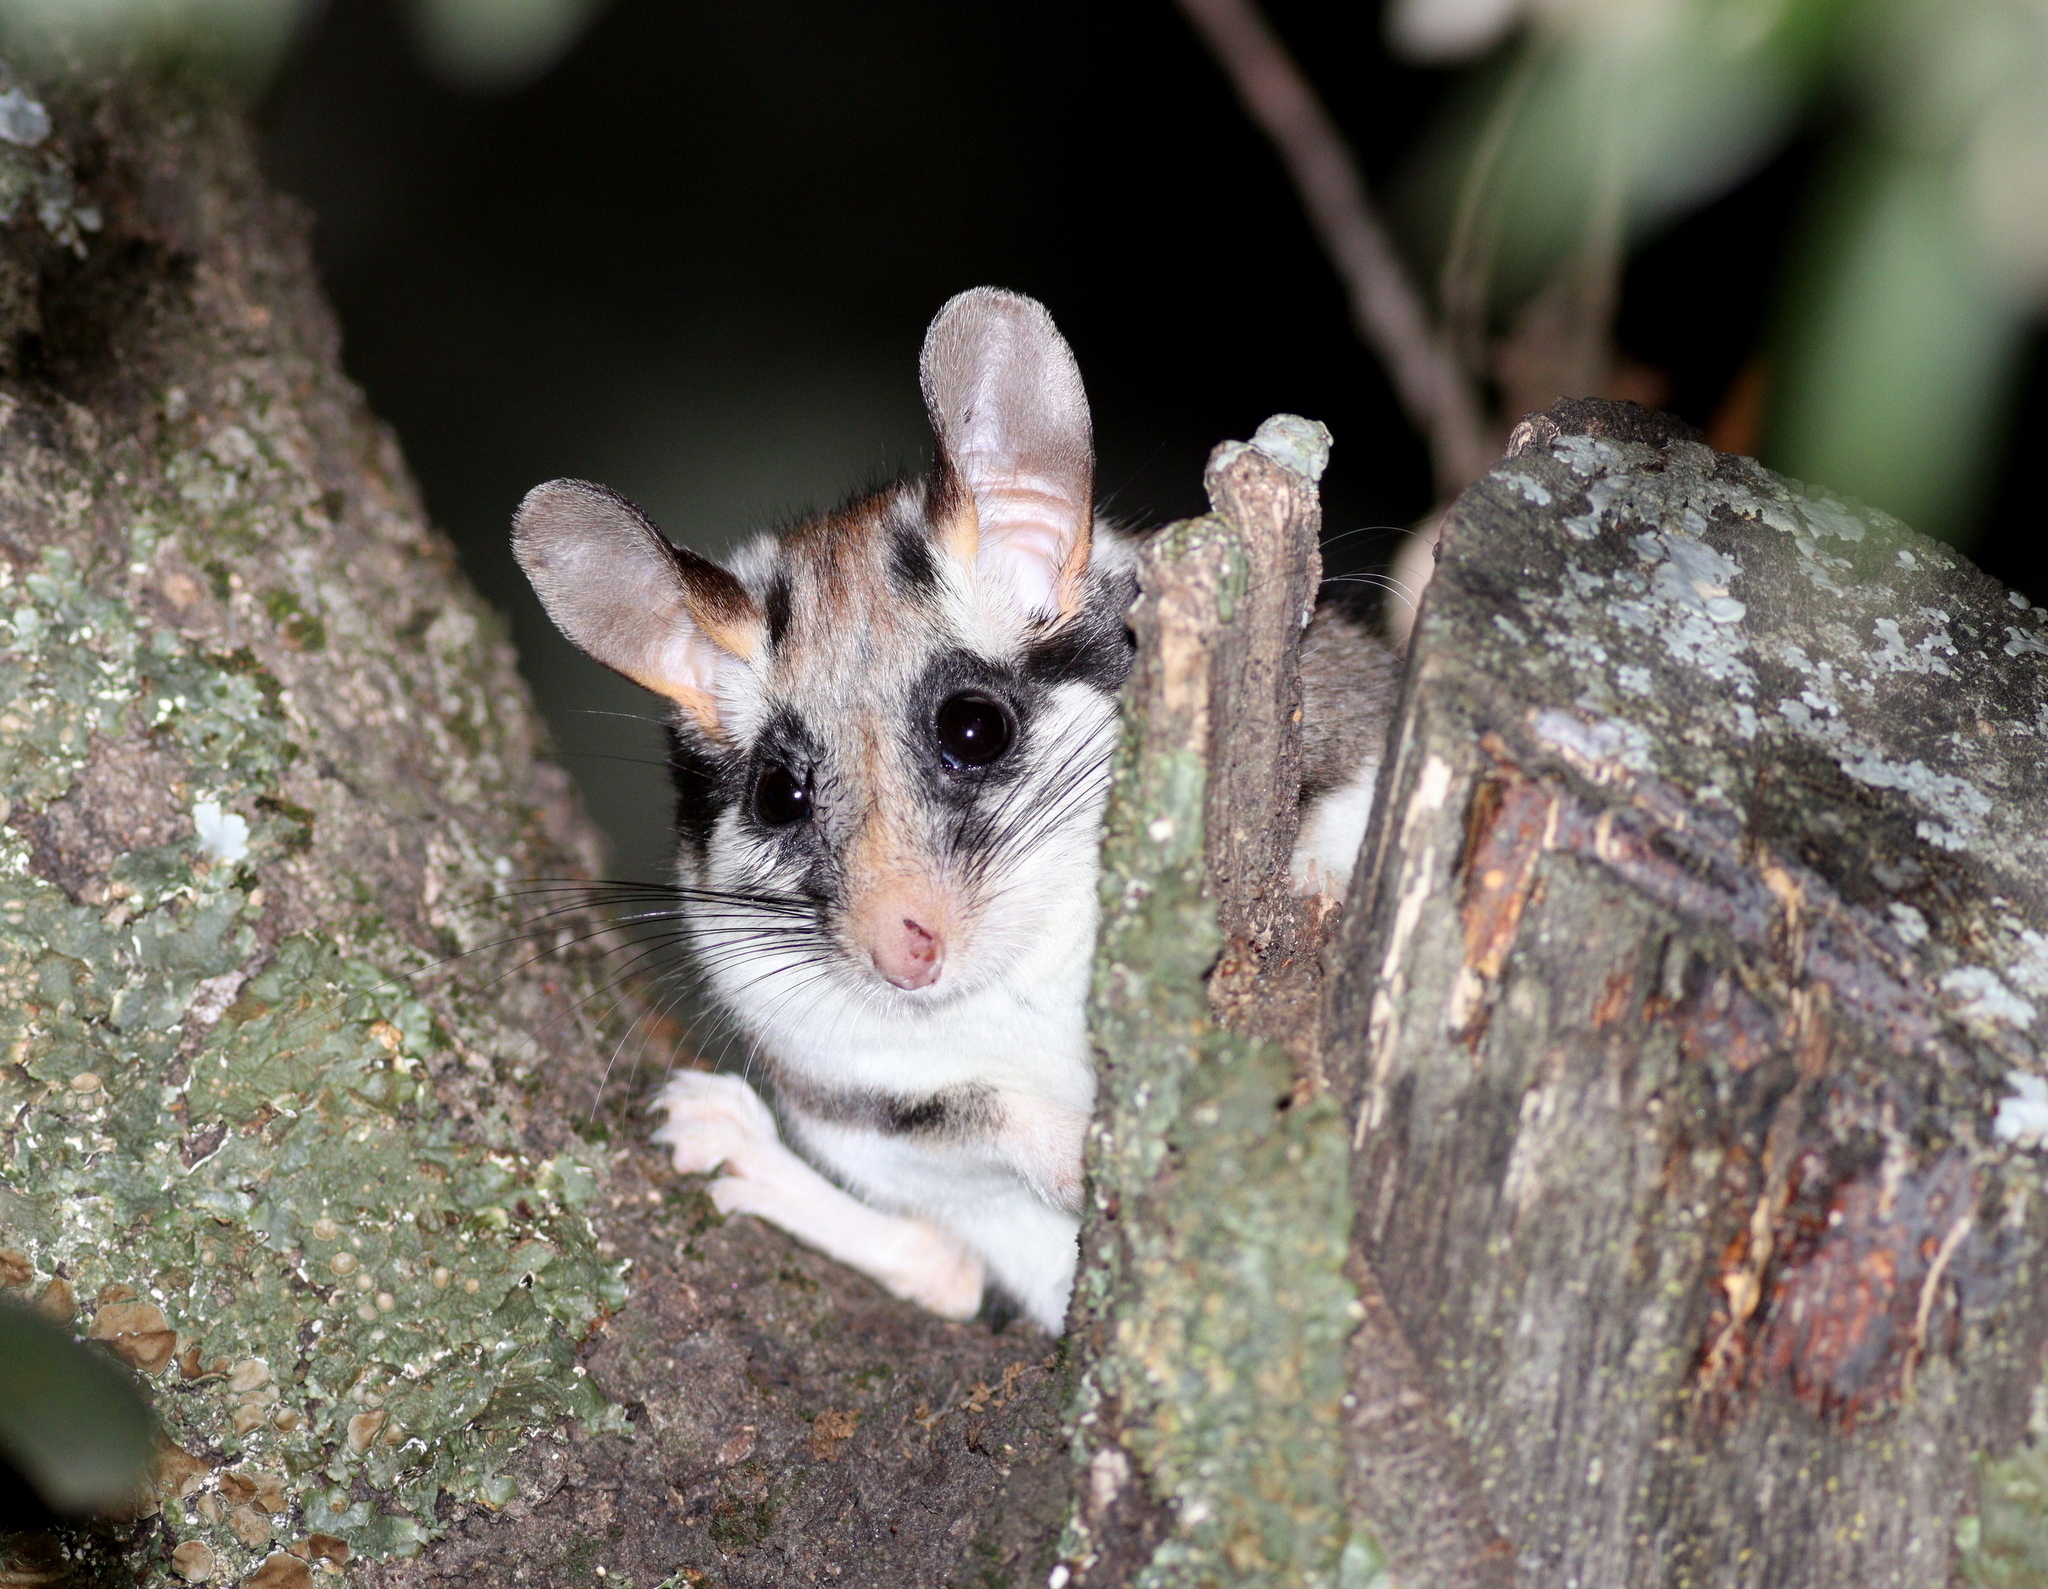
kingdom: Animalia
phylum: Chordata
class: Mammalia
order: Rodentia
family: Gliridae
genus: Eliomys
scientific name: Eliomys quercinus
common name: Garden dormouse
